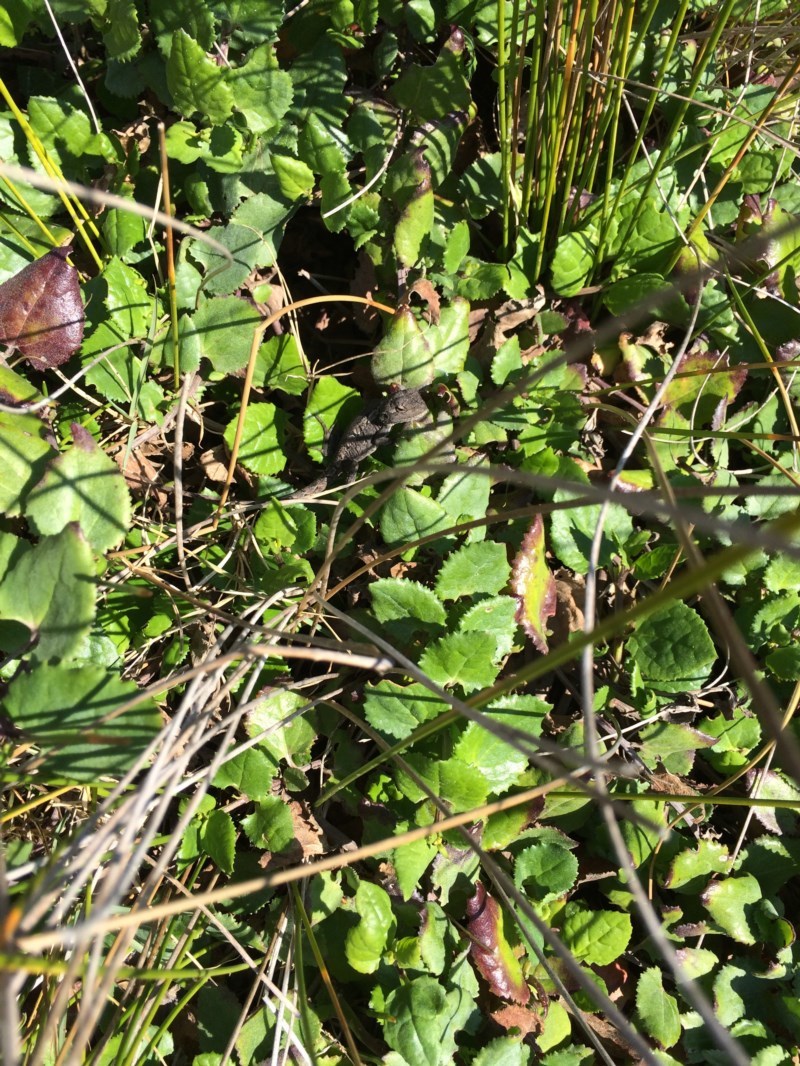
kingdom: Animalia
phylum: Chordata
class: Squamata
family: Agamidae
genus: Amphibolurus
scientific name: Amphibolurus muricatus
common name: Jacky lizard
